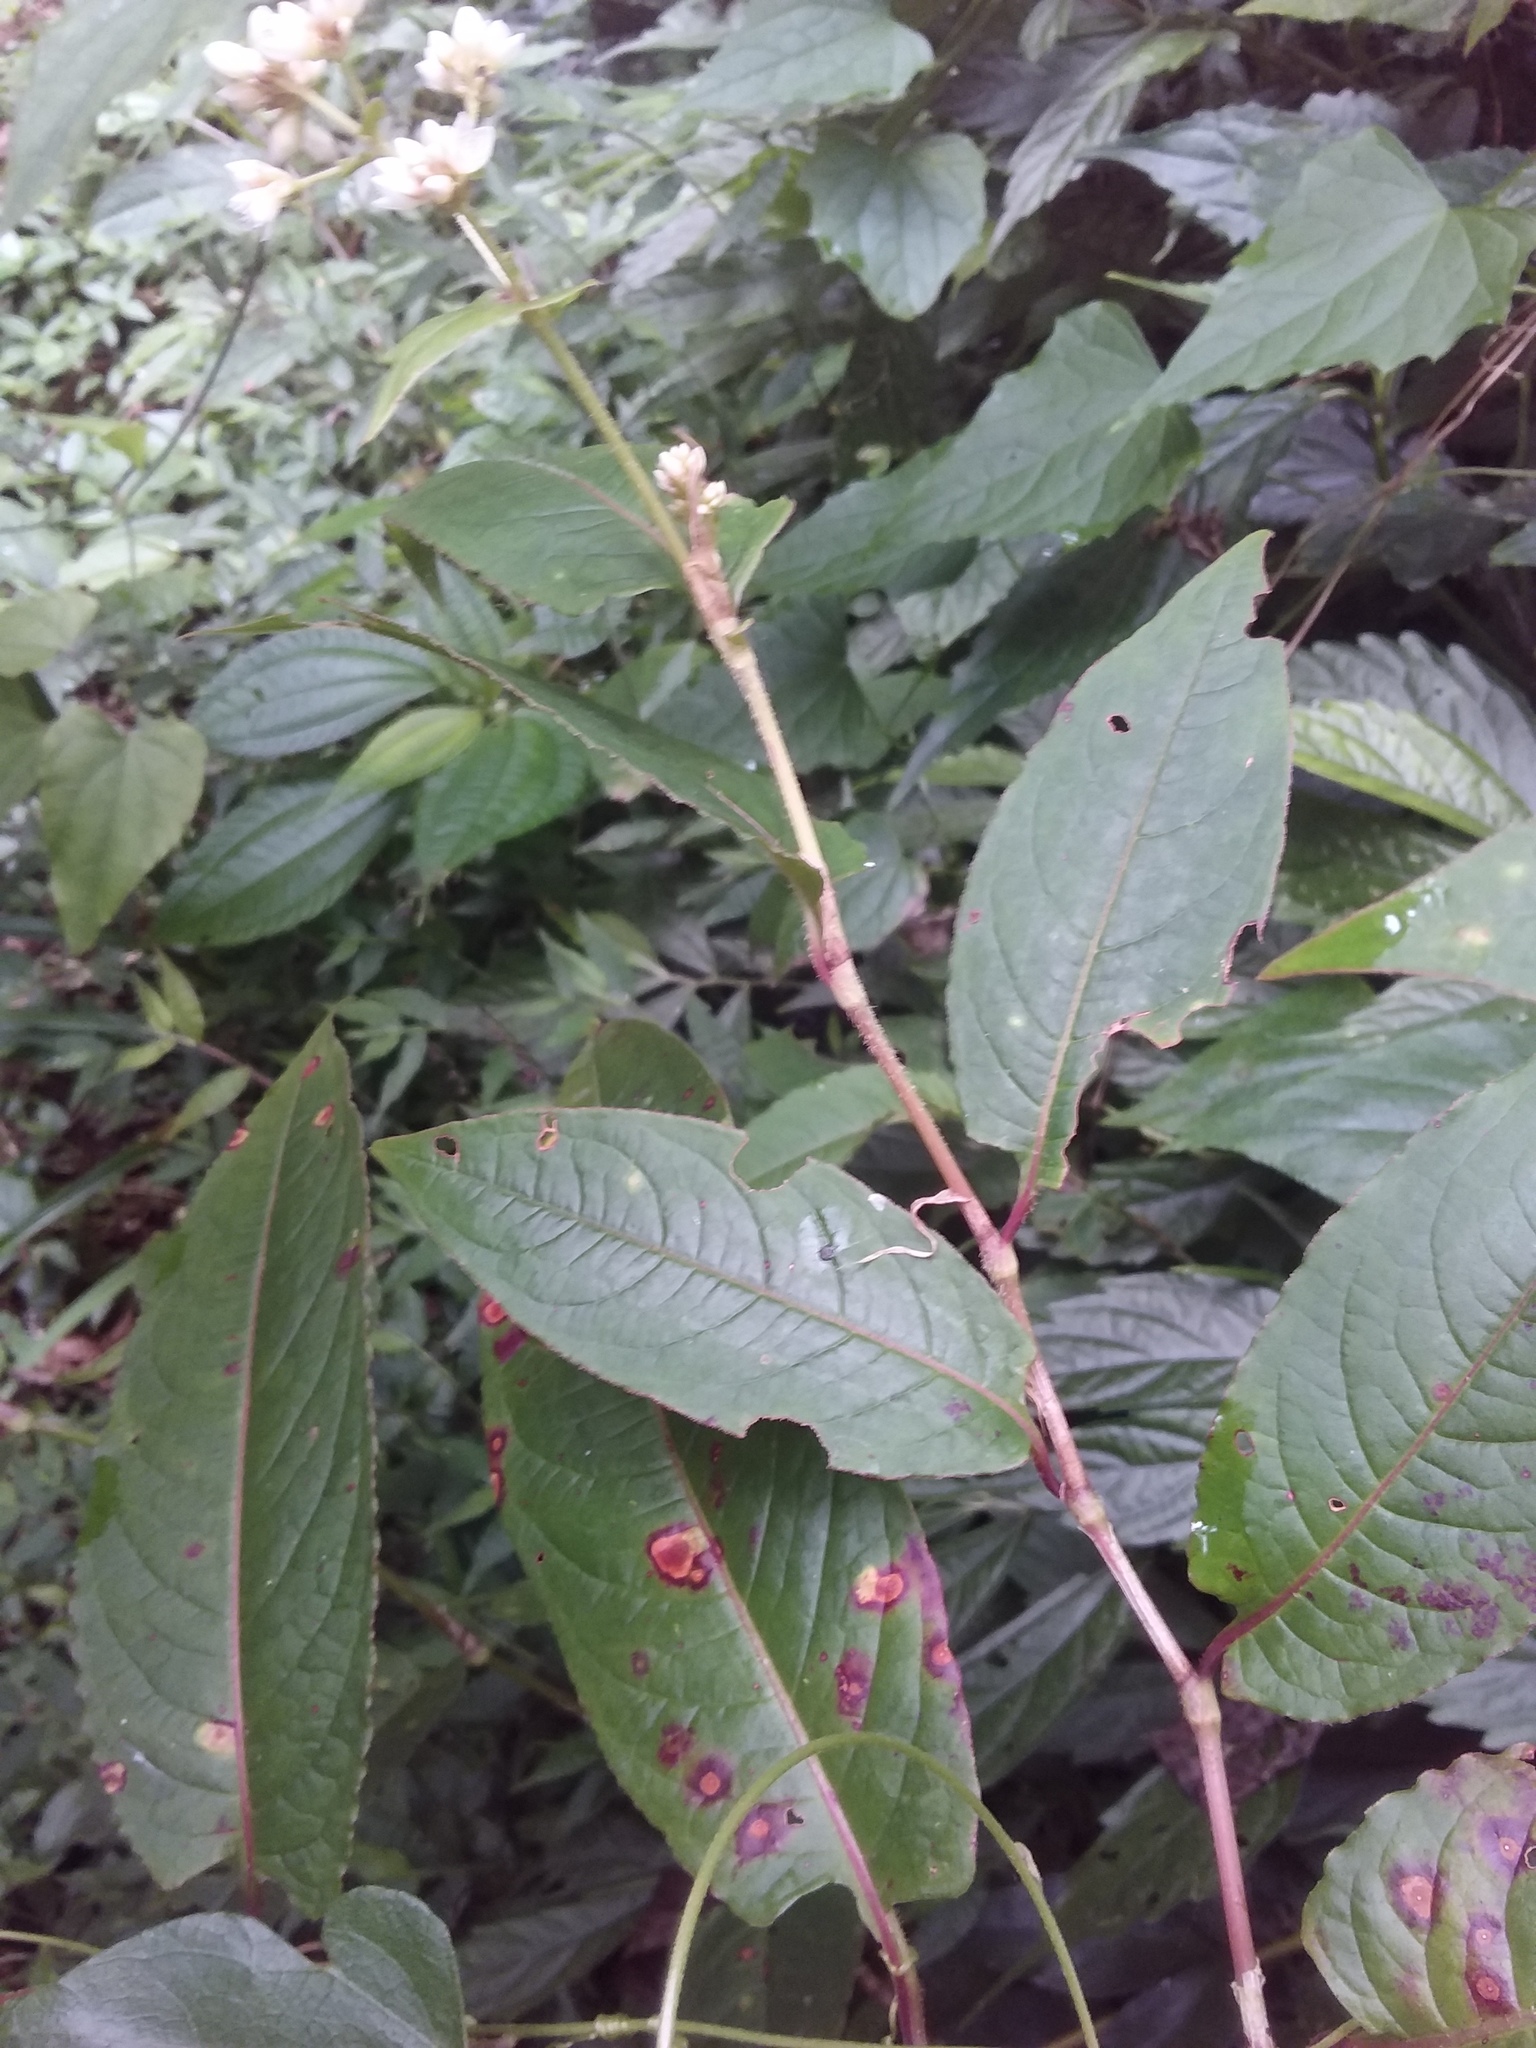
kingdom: Plantae
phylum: Tracheophyta
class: Magnoliopsida
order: Caryophyllales
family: Polygonaceae
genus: Persicaria
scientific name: Persicaria chinensis
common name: Chinese knotweed
